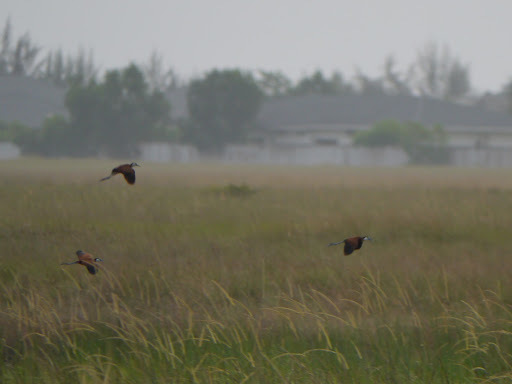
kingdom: Animalia
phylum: Chordata
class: Aves
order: Charadriiformes
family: Jacanidae
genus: Actophilornis
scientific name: Actophilornis africanus
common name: African jacana
